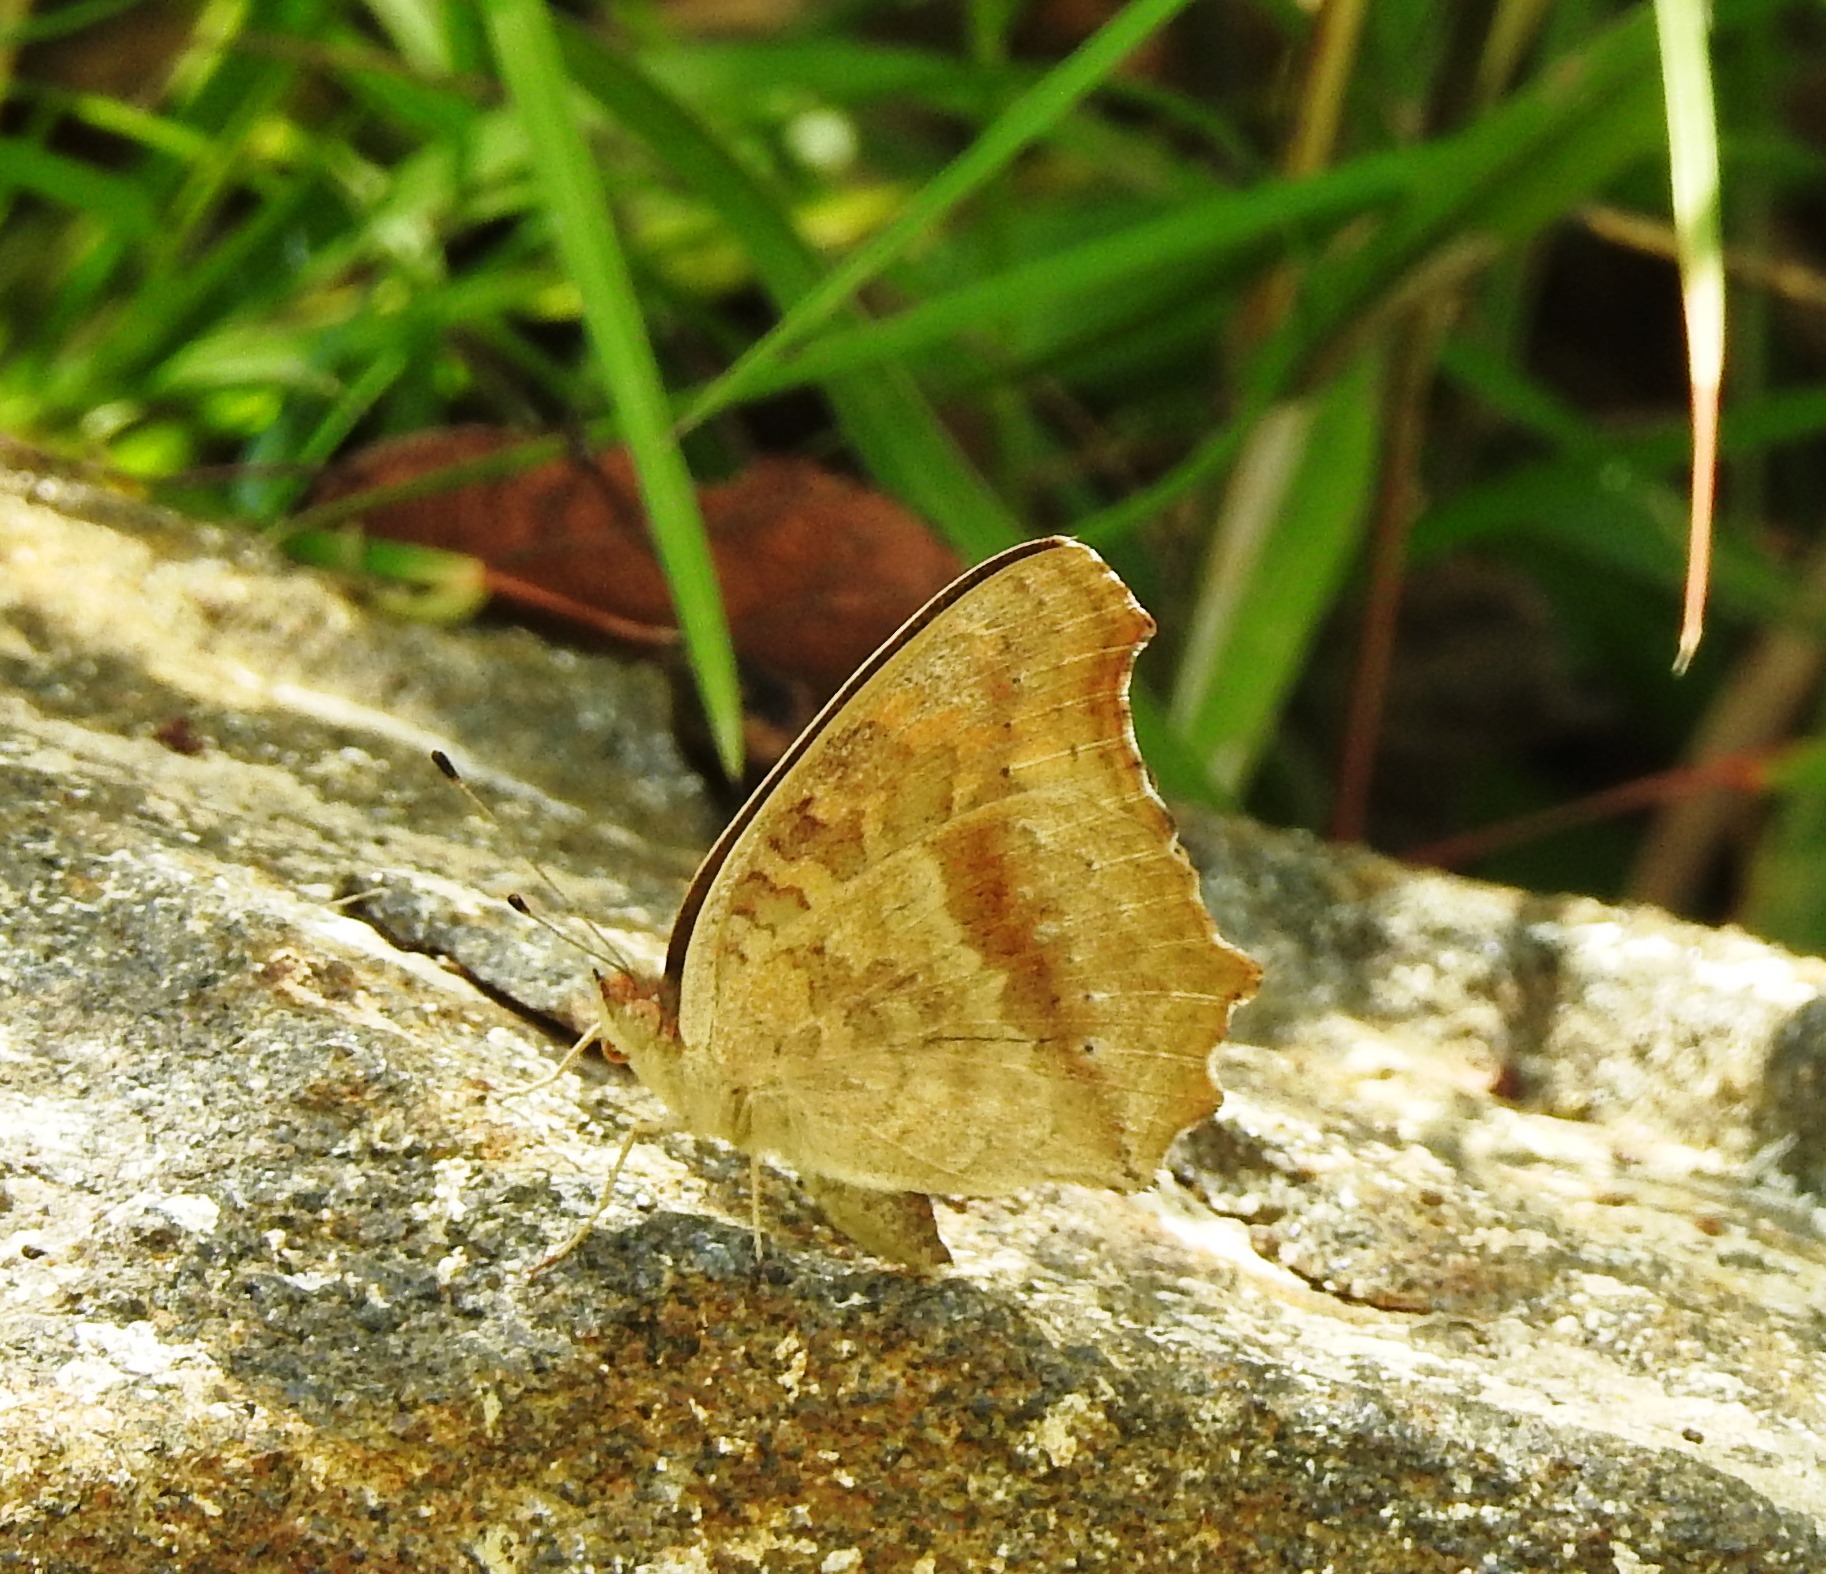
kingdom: Animalia
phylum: Arthropoda
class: Insecta
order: Lepidoptera
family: Nymphalidae
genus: Junonia
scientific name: Junonia lemonias
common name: Lemon pansy
